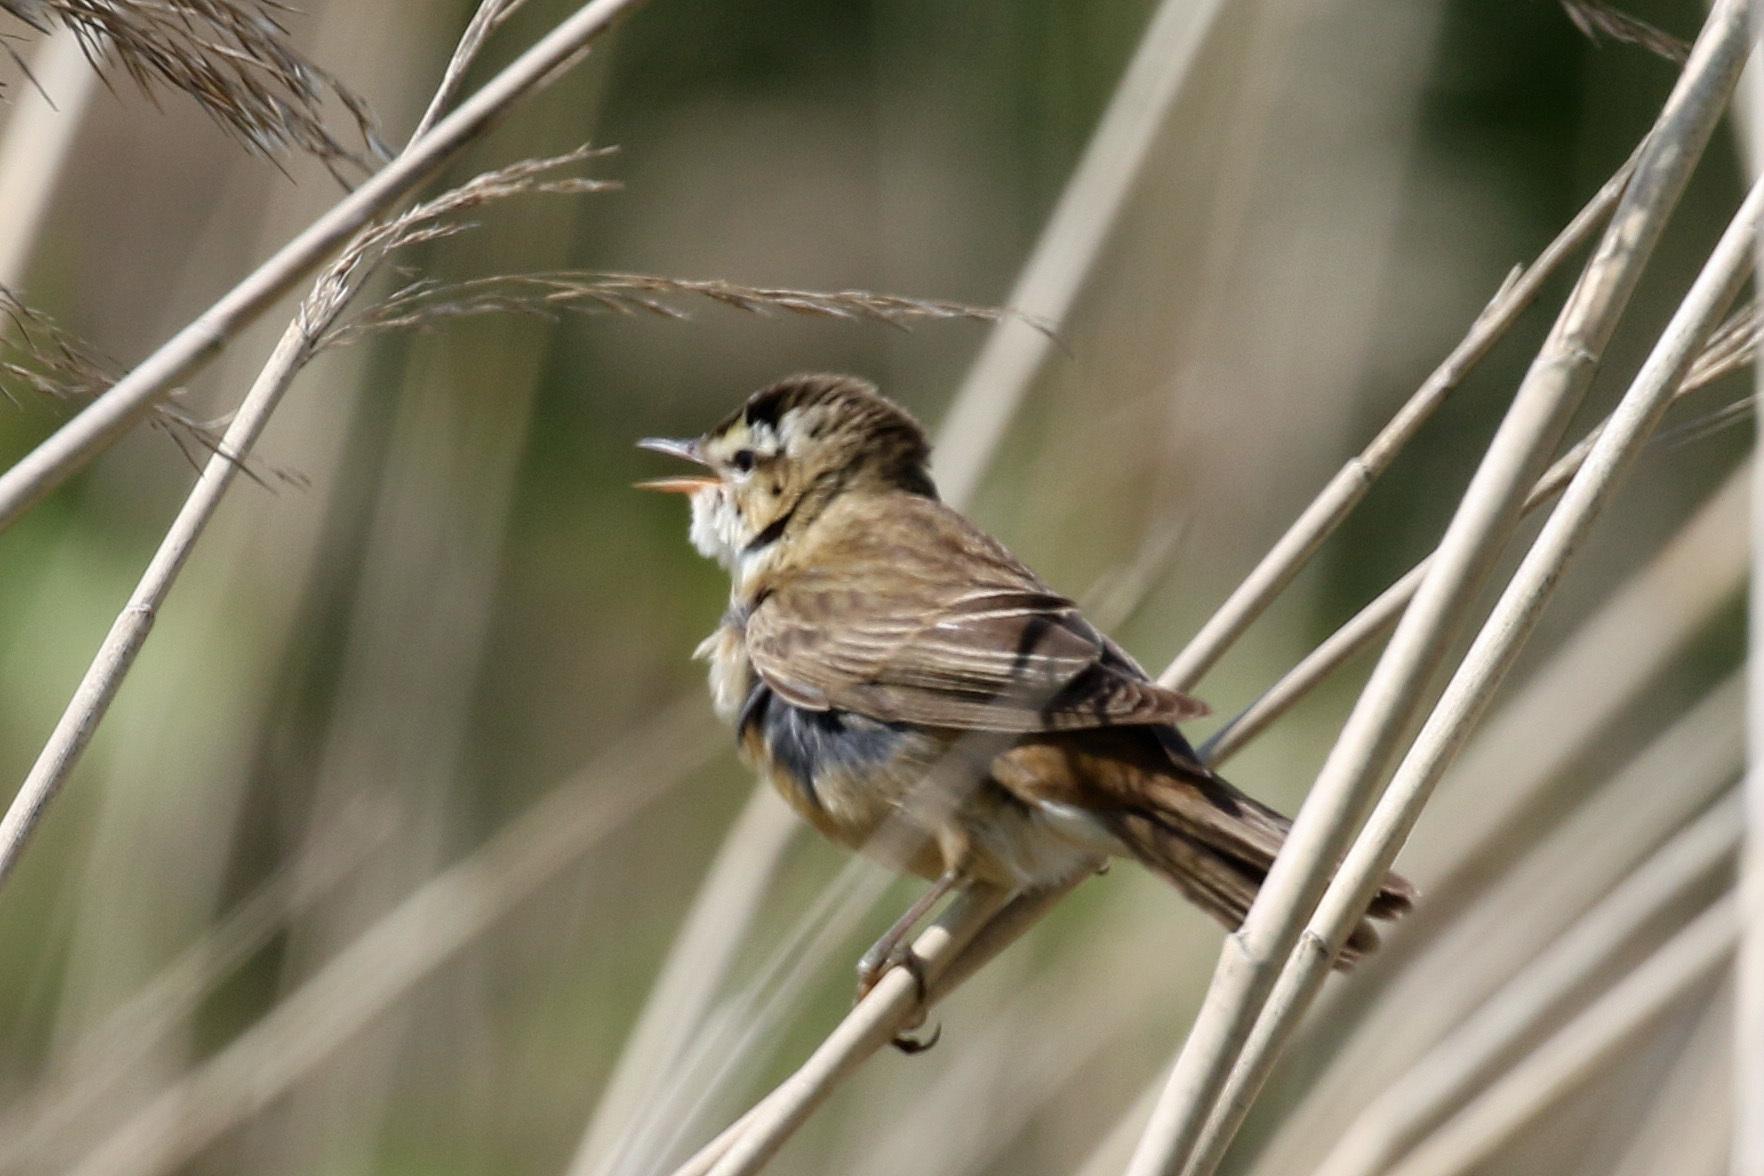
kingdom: Animalia
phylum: Chordata
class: Aves
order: Passeriformes
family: Acrocephalidae
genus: Acrocephalus
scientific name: Acrocephalus schoenobaenus
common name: Sedge warbler
